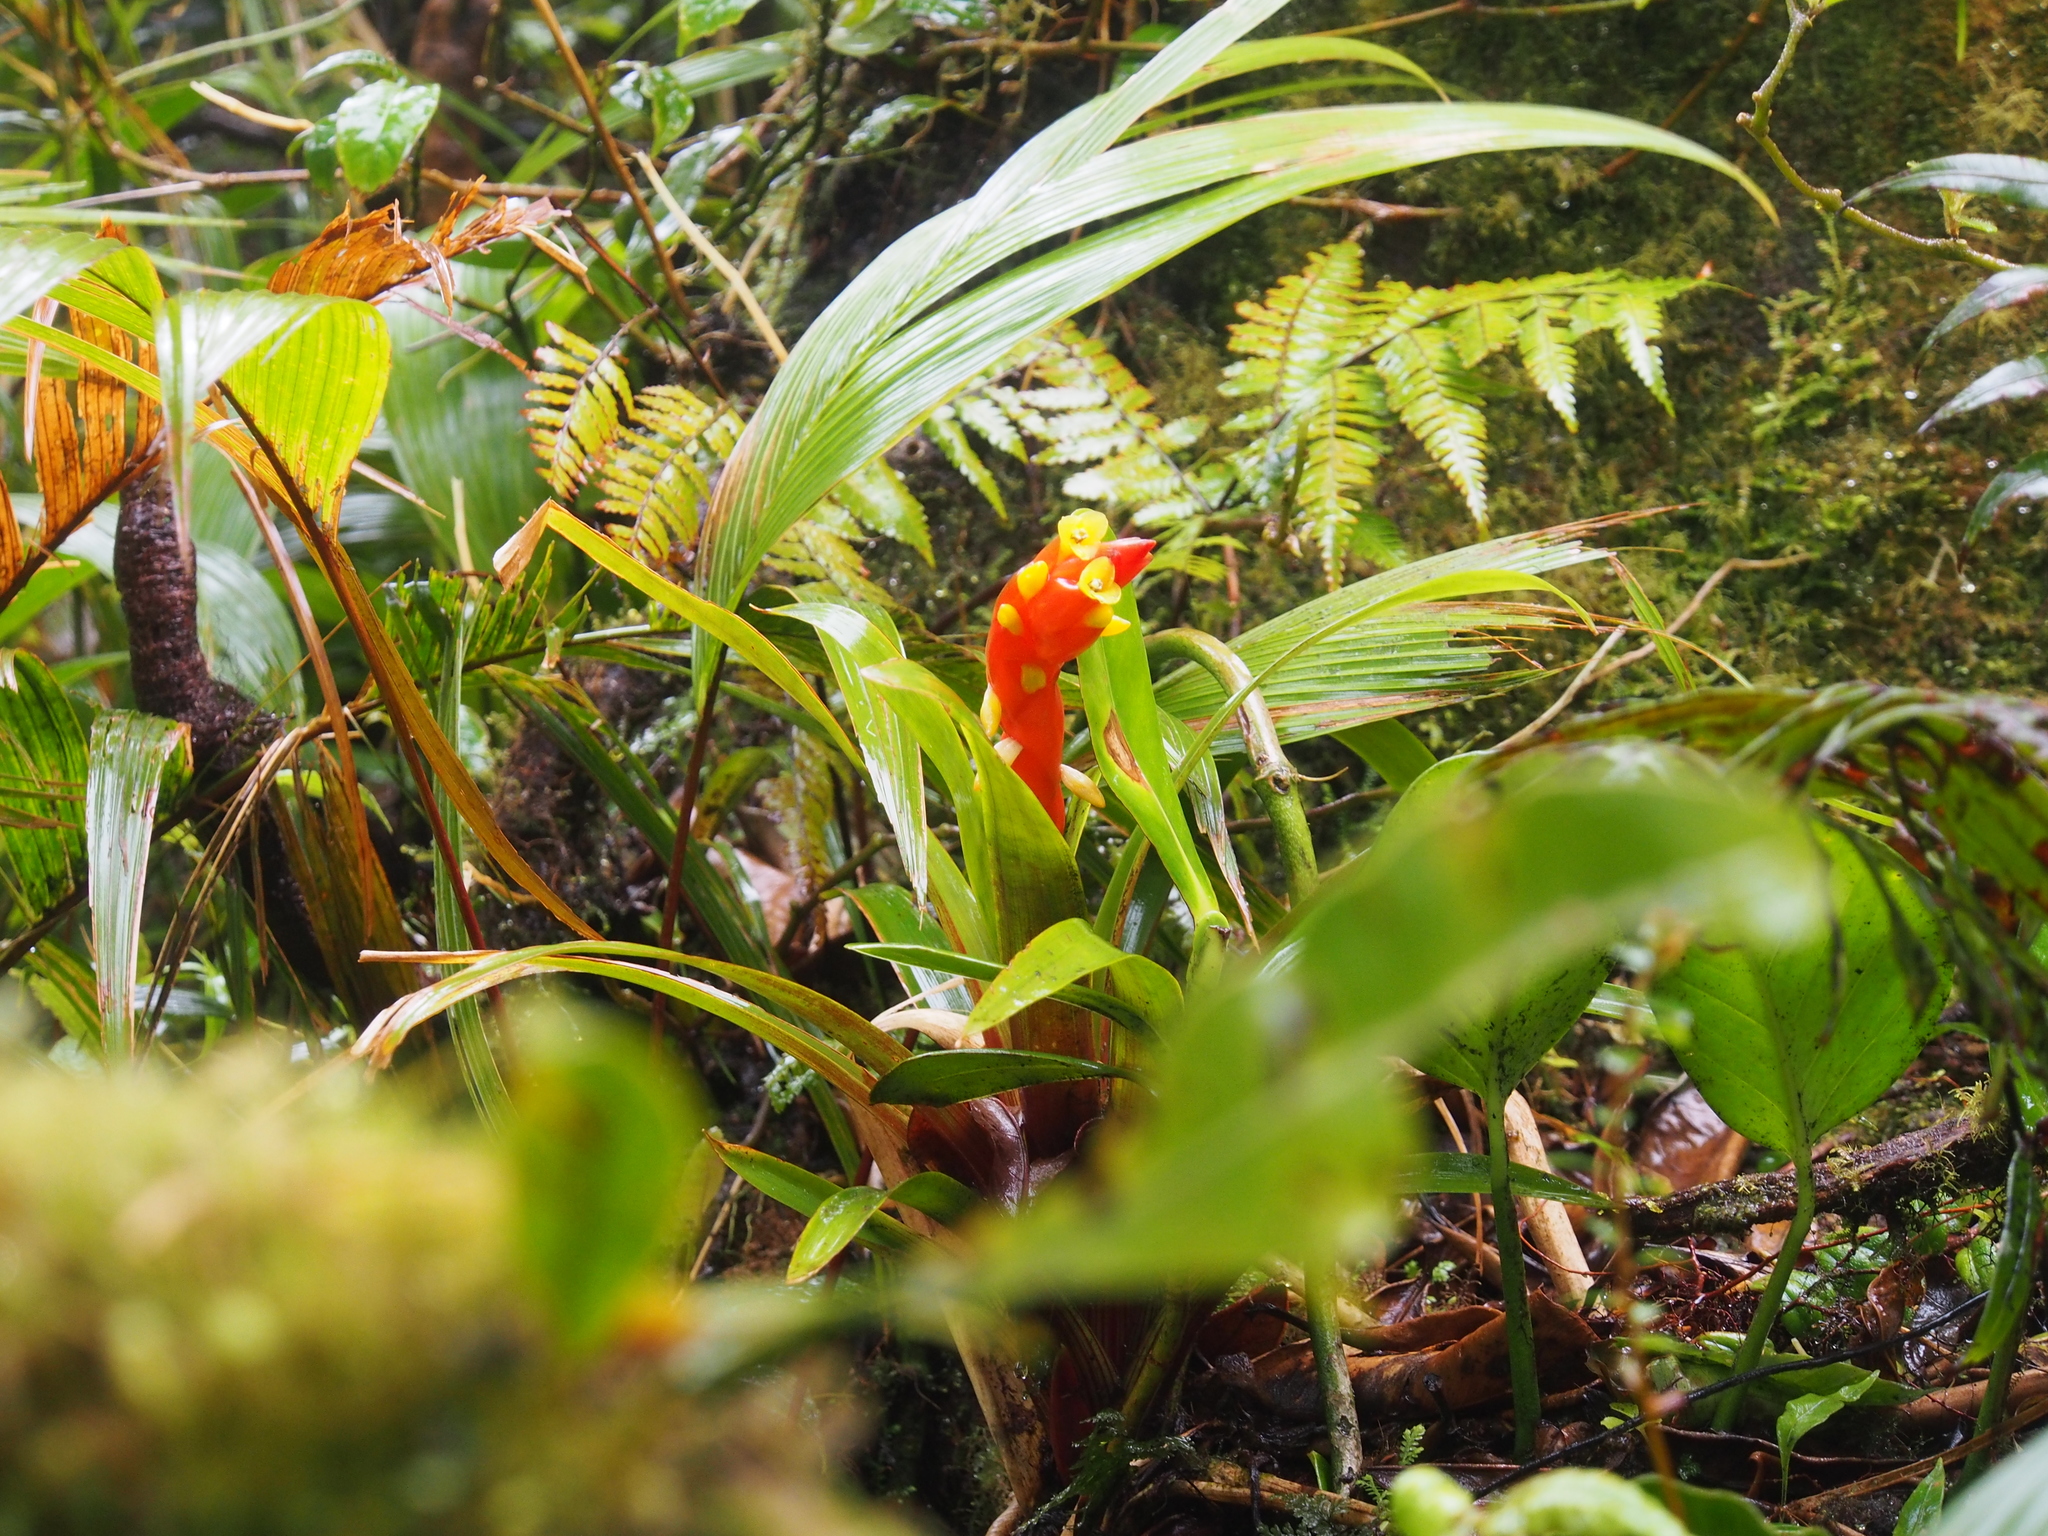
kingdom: Plantae
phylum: Tracheophyta
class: Liliopsida
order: Poales
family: Bromeliaceae
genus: Guzmania
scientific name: Guzmania nicaraguensis
